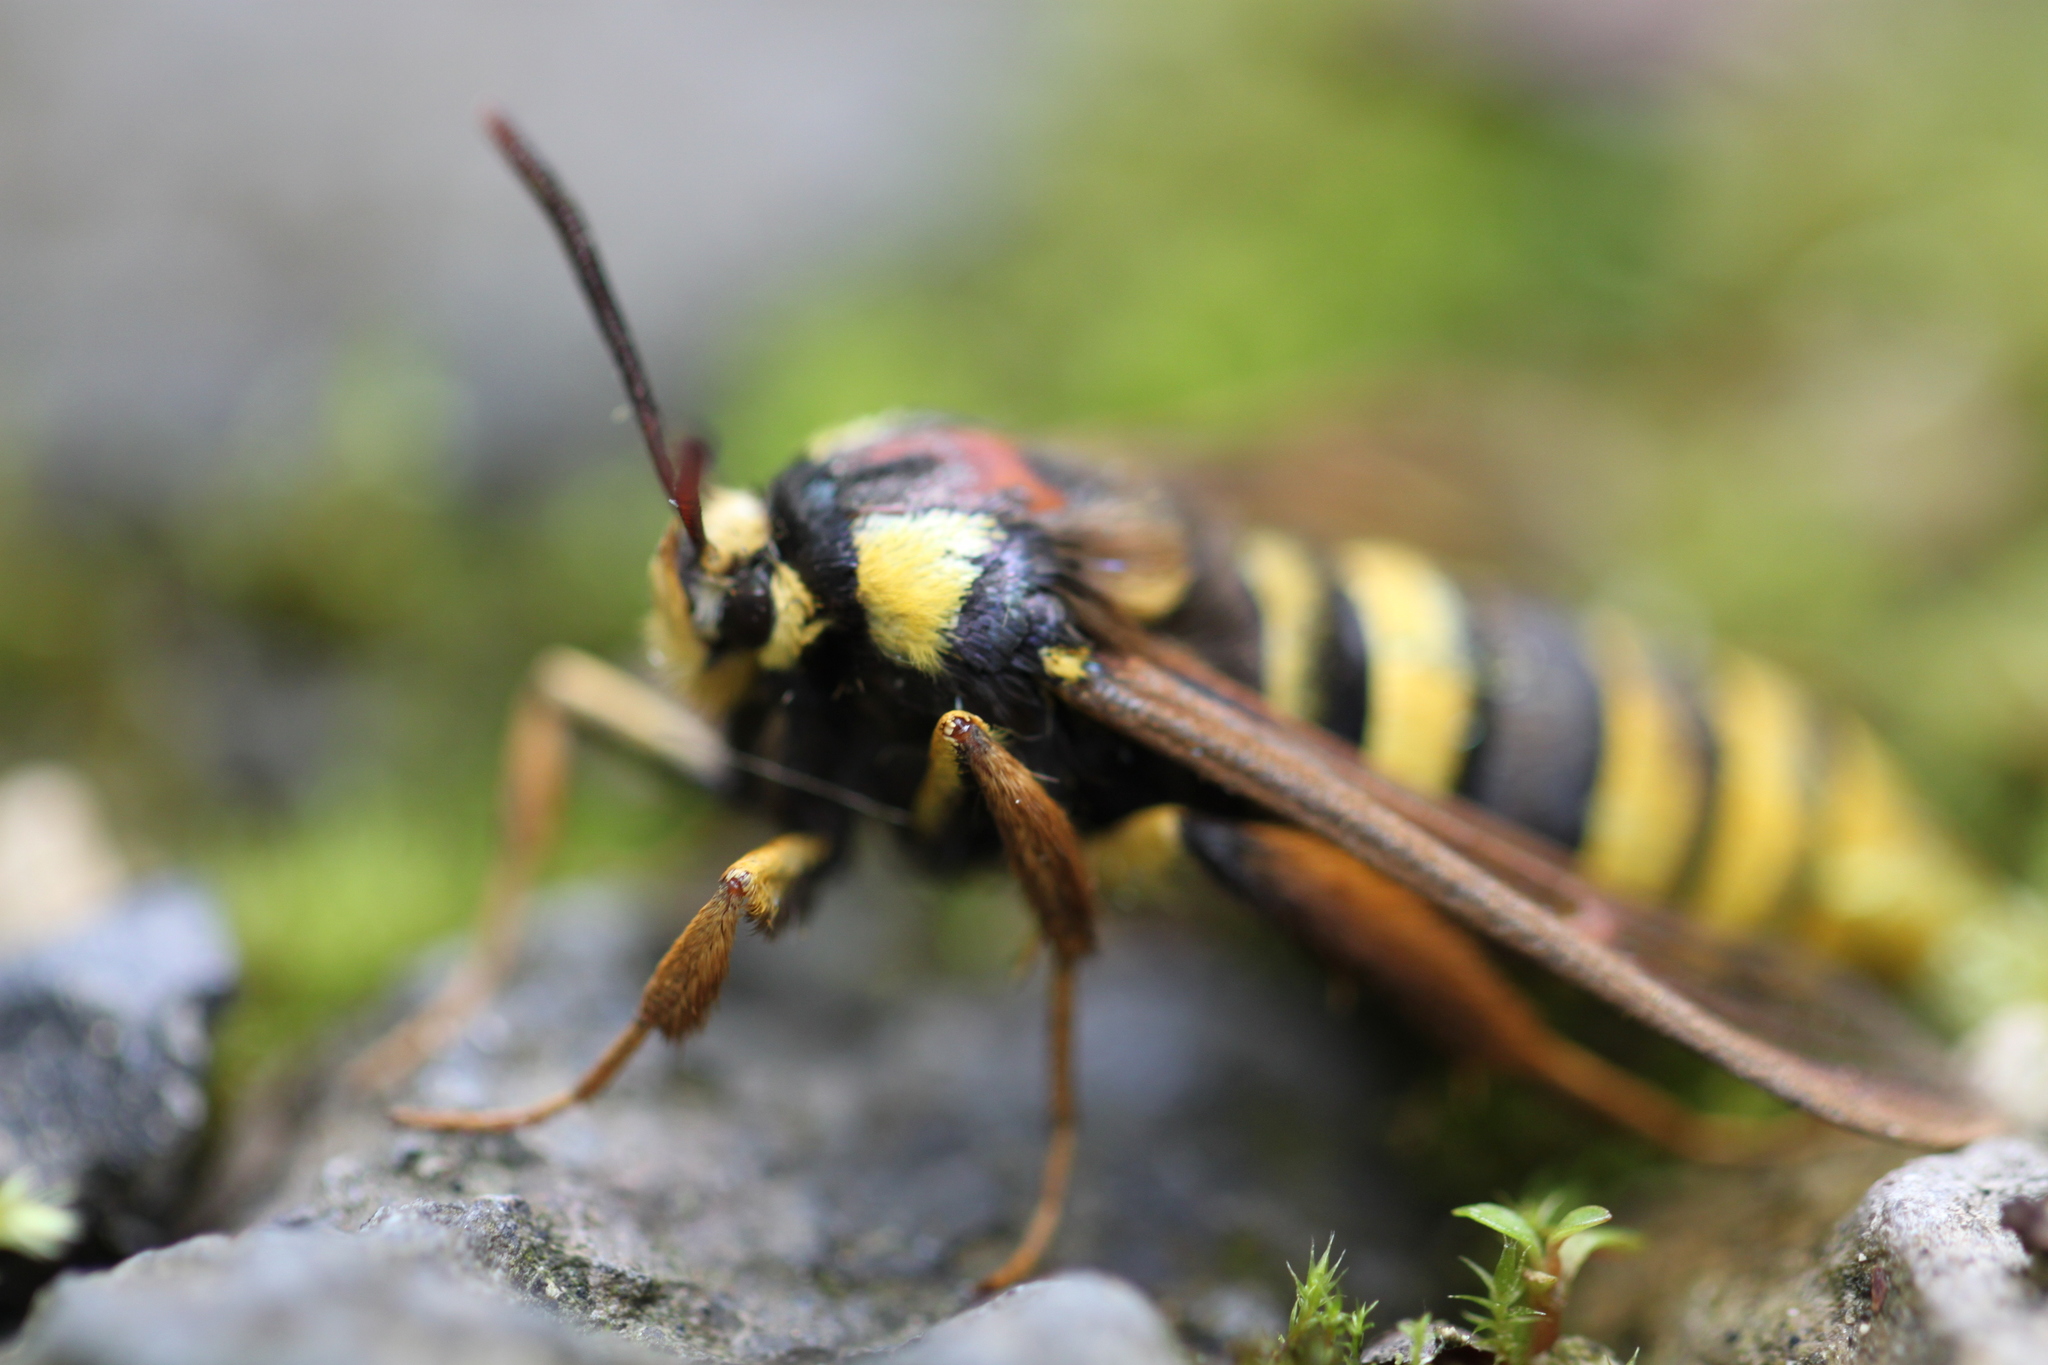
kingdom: Animalia
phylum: Arthropoda
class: Insecta
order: Lepidoptera
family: Sesiidae
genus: Sesia
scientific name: Sesia apiformis
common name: Hornet moth
